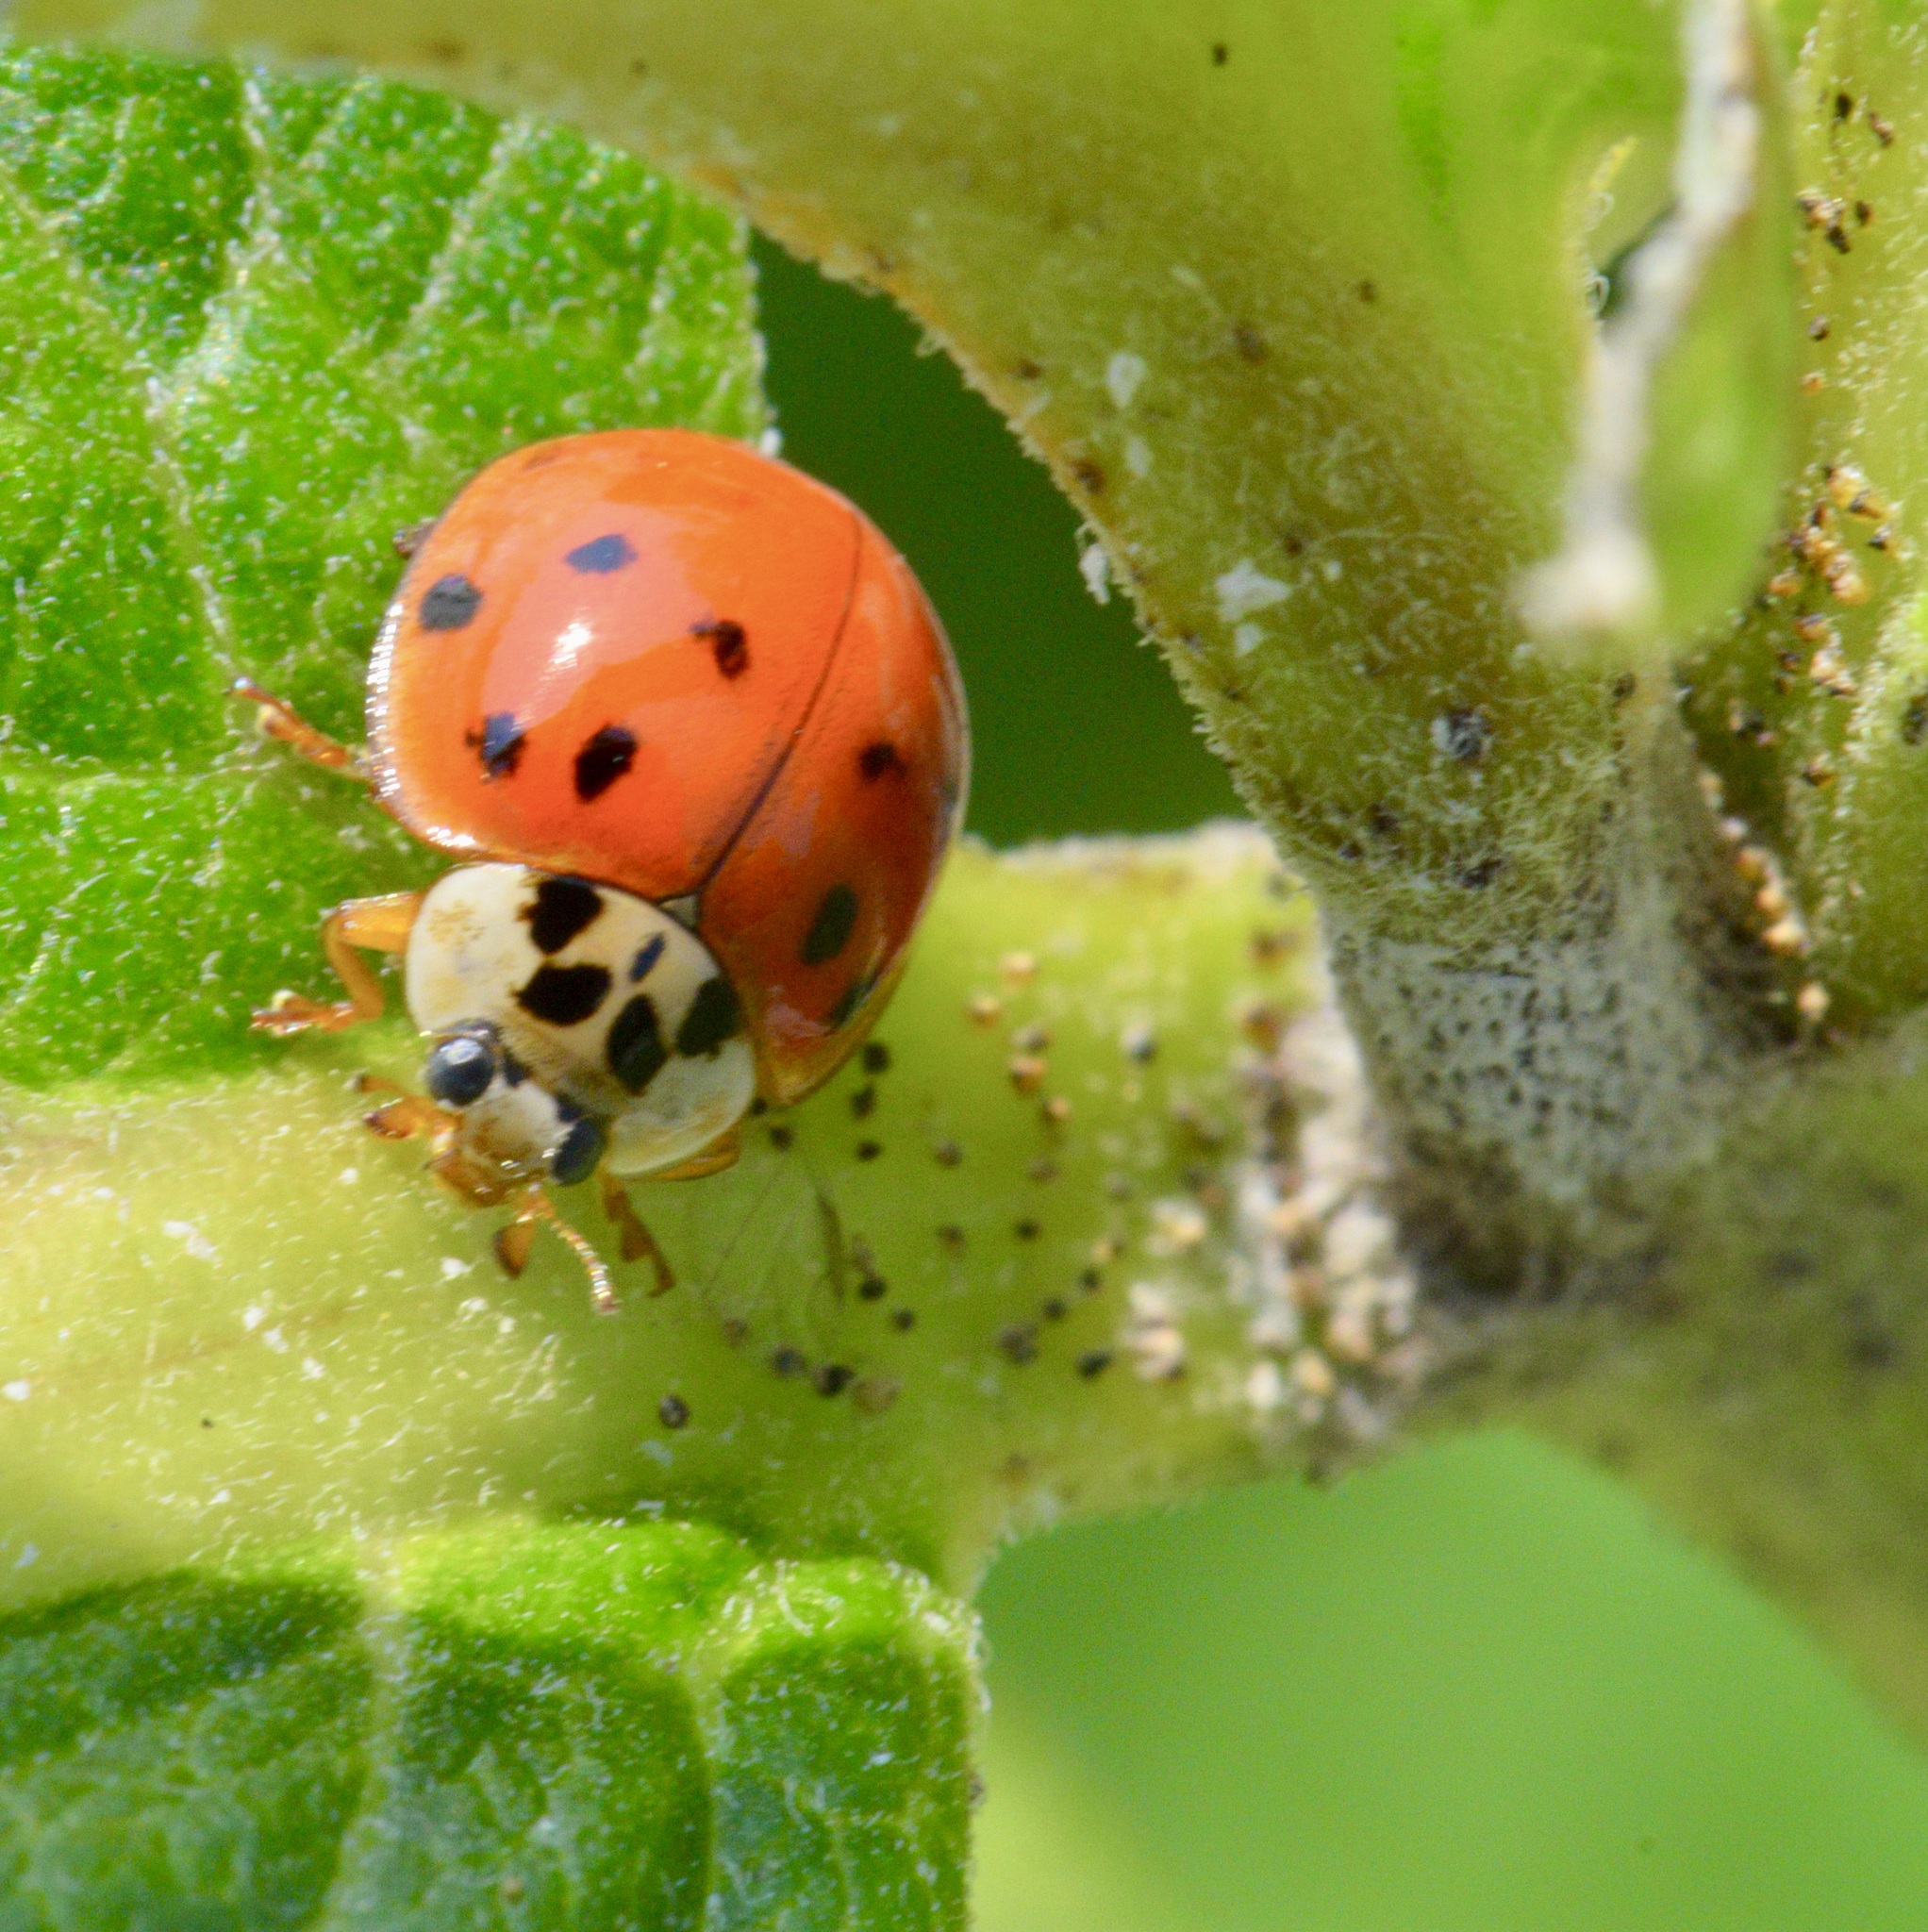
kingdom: Animalia
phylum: Arthropoda
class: Insecta
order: Coleoptera
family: Coccinellidae
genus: Harmonia
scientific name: Harmonia axyridis
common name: Harlequin ladybird
